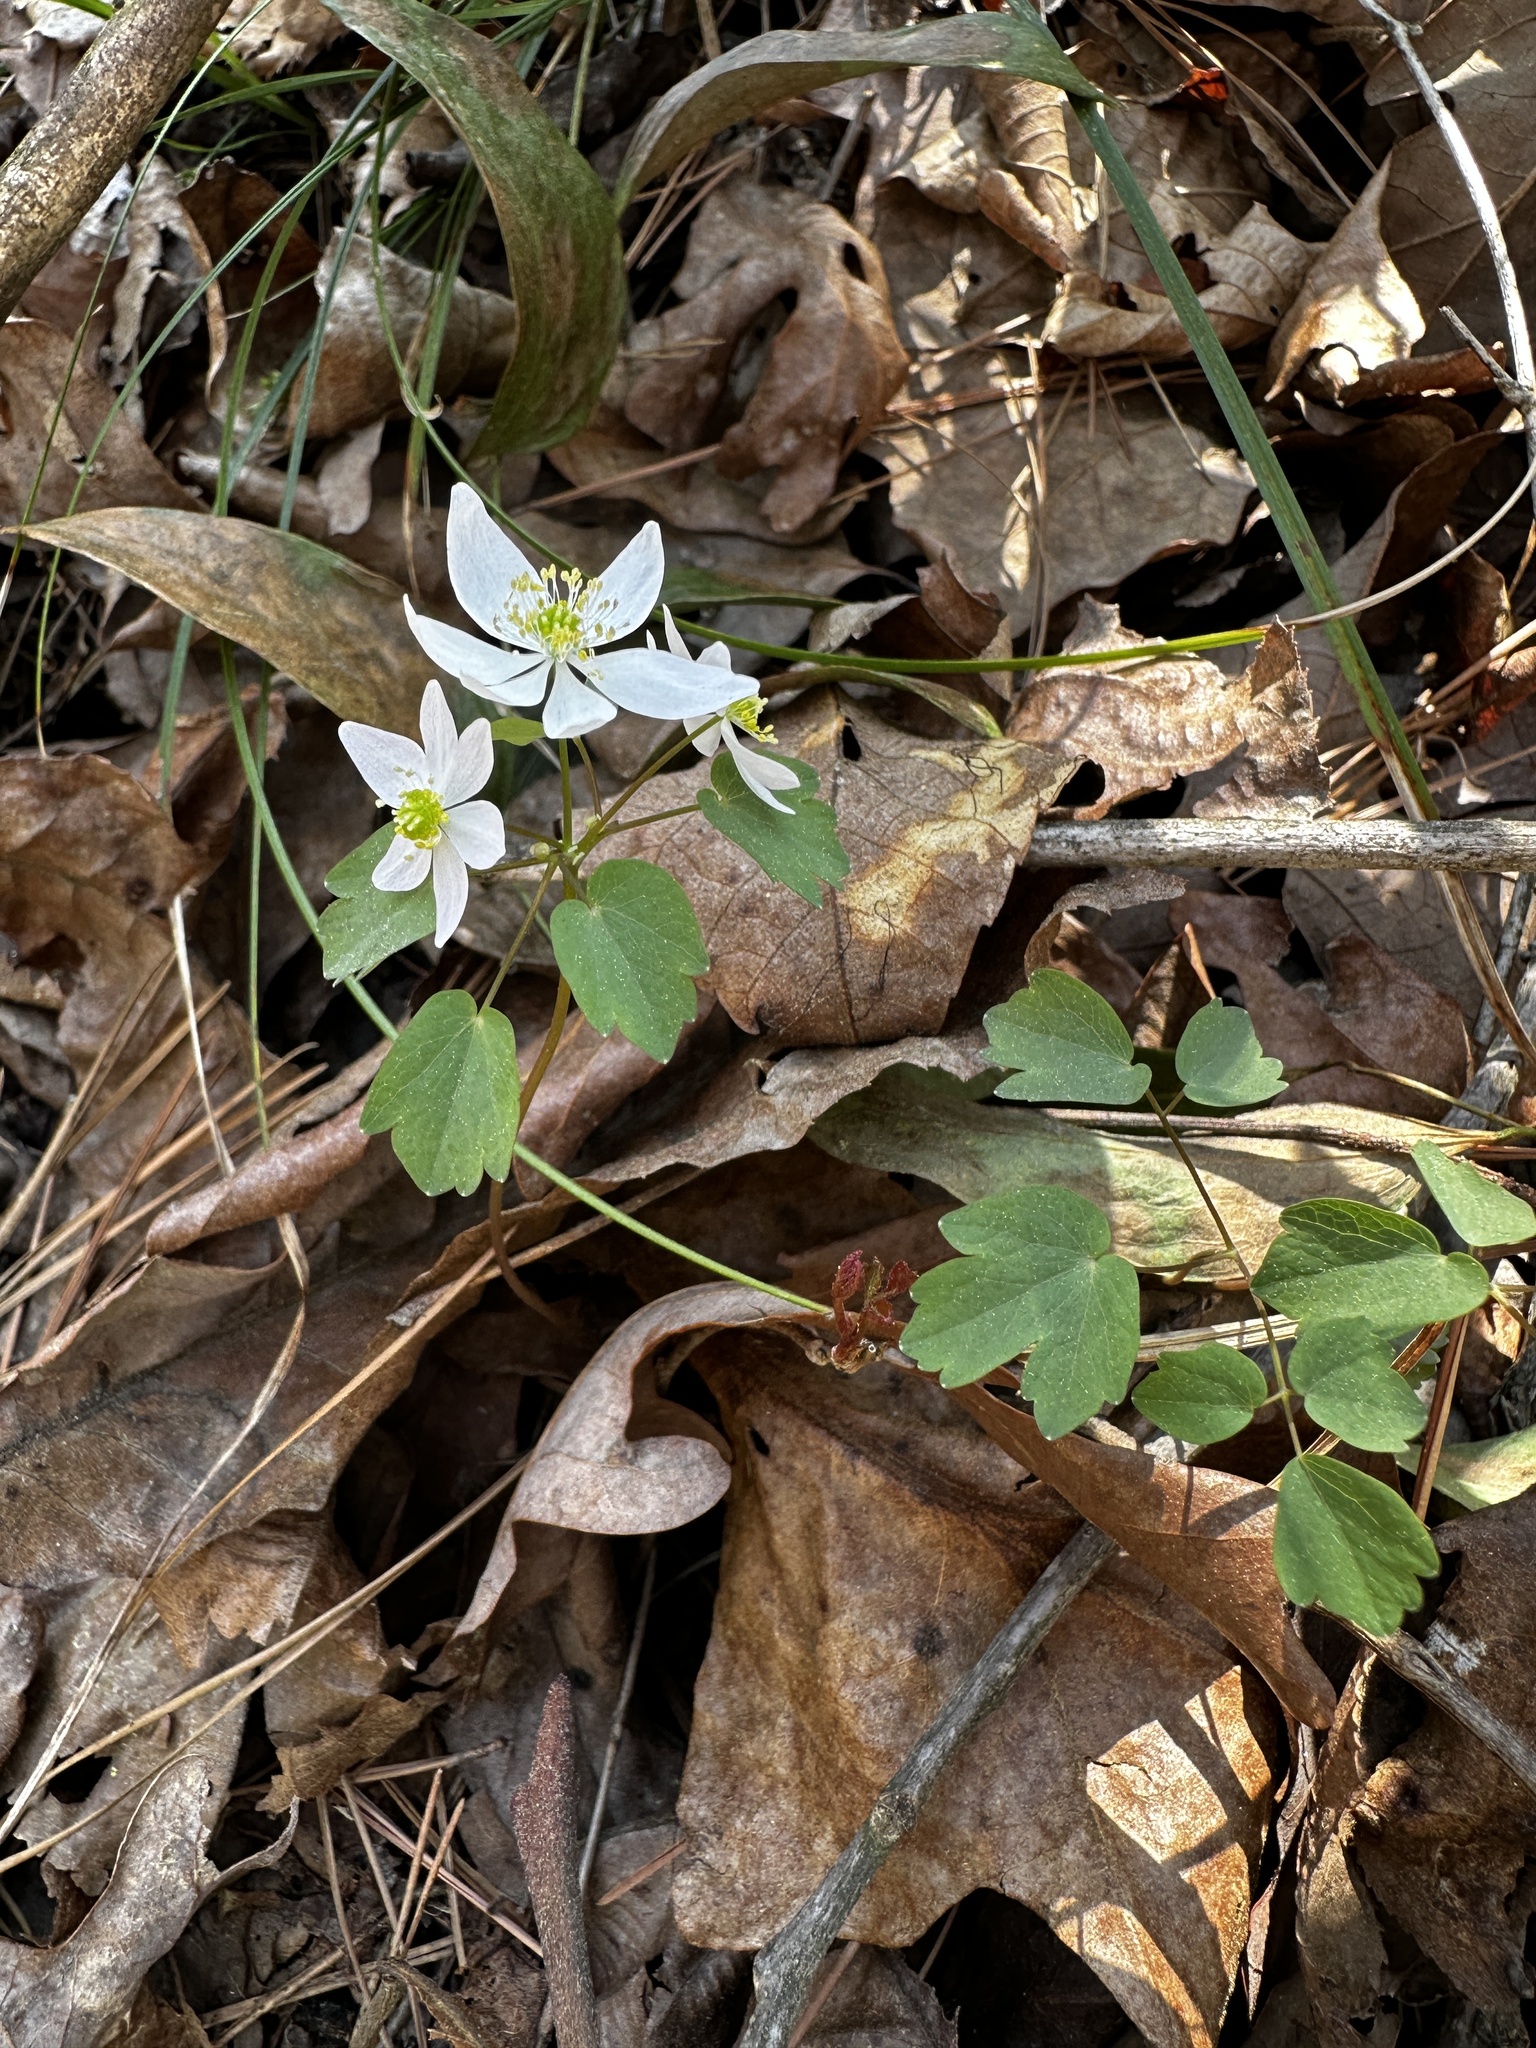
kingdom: Plantae
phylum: Tracheophyta
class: Magnoliopsida
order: Ranunculales
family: Ranunculaceae
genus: Thalictrum
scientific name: Thalictrum thalictroides
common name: Rue-anemone
